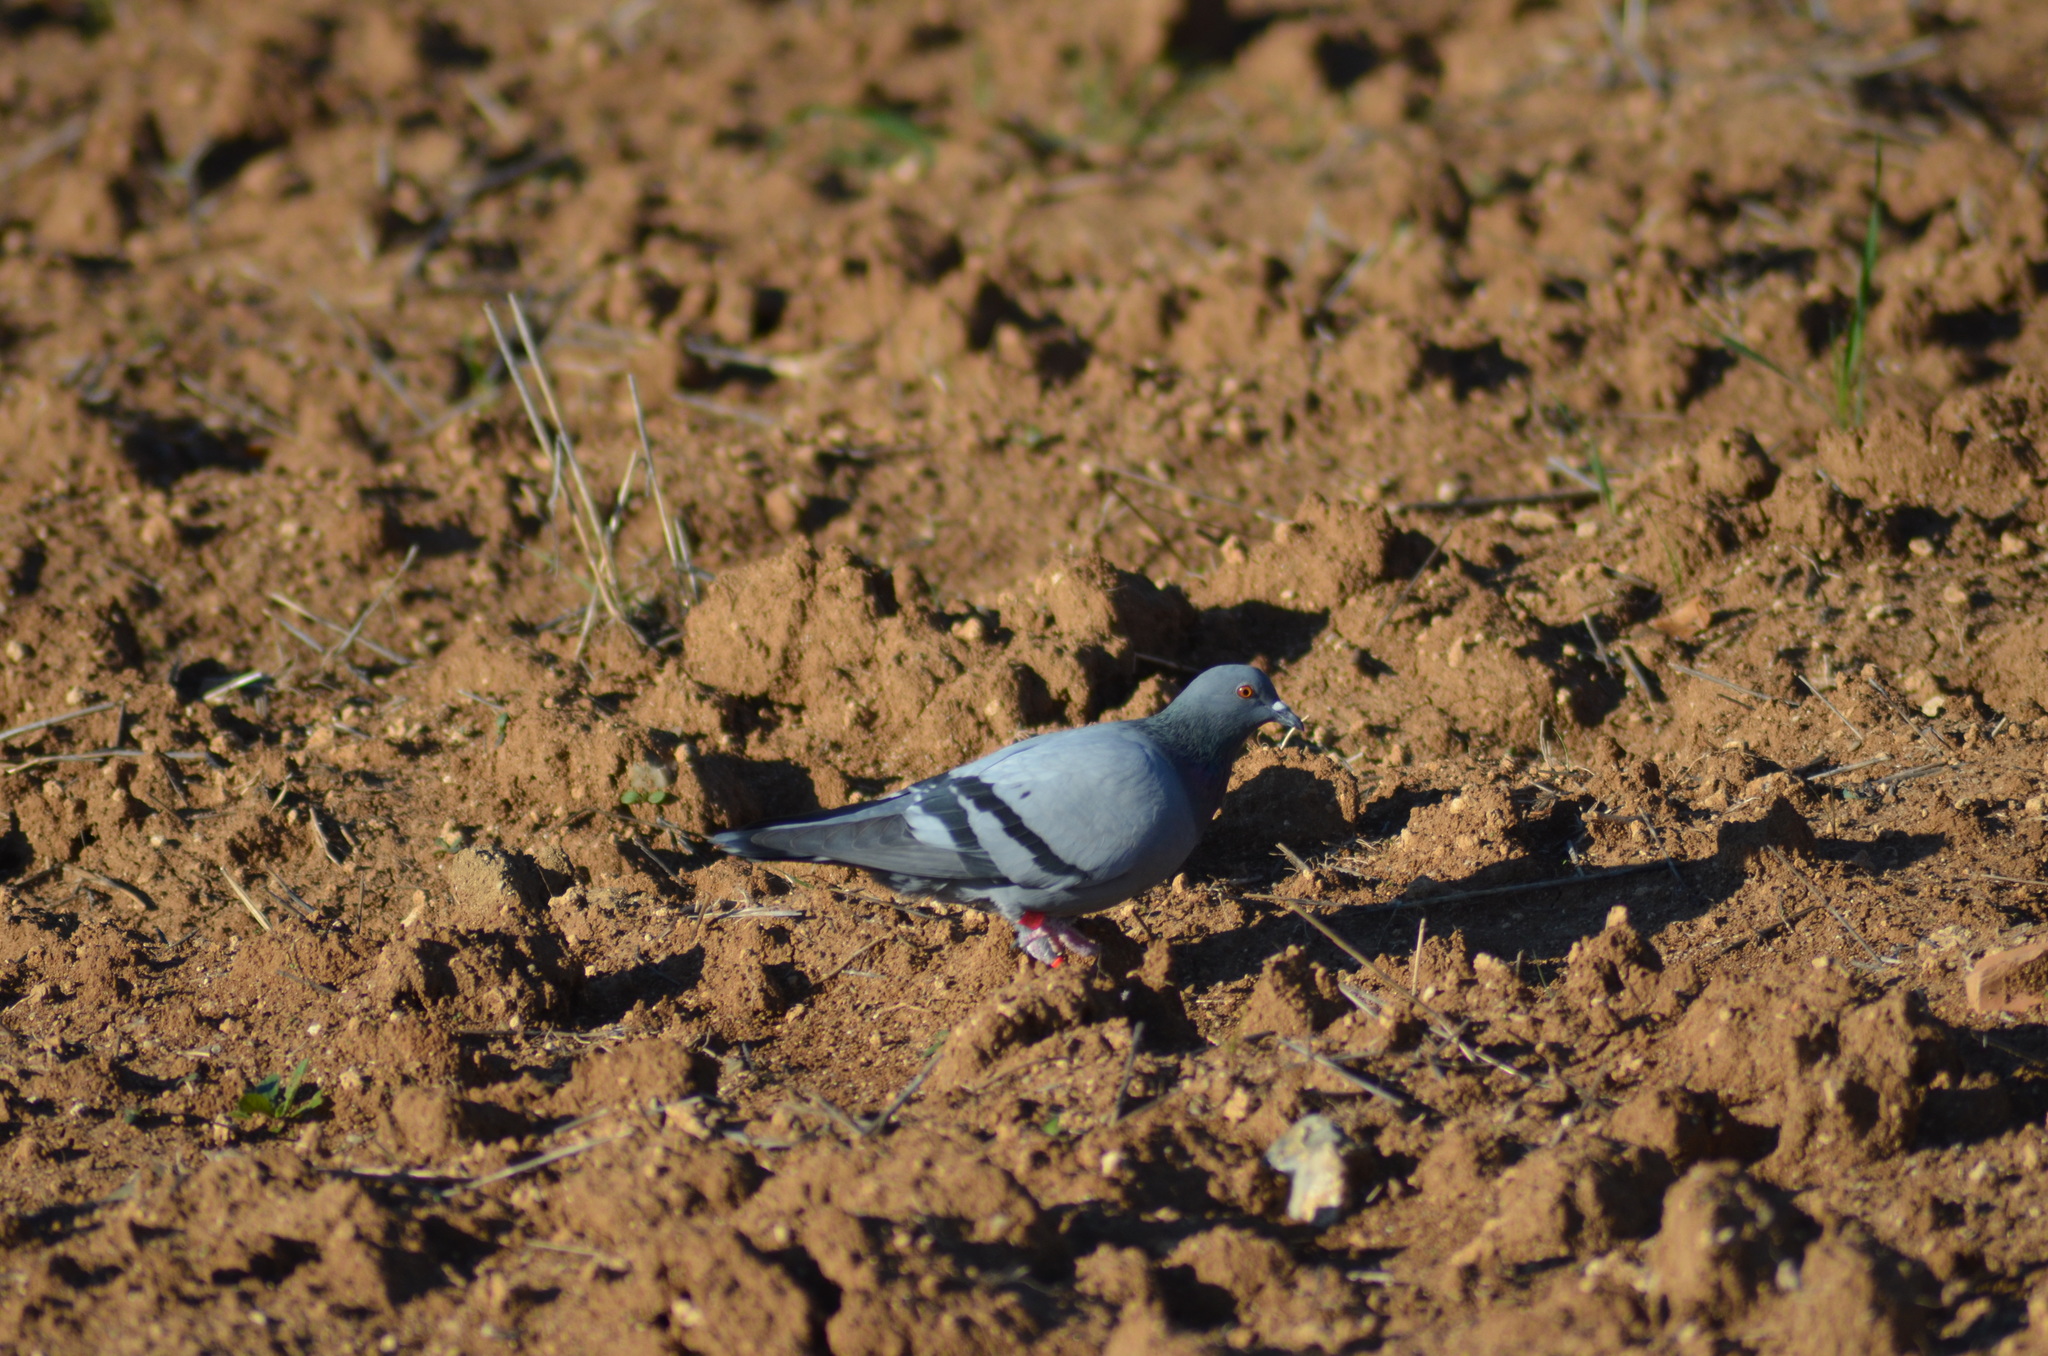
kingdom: Animalia
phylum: Chordata
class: Aves
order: Columbiformes
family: Columbidae
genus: Columba
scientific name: Columba livia
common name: Rock pigeon
